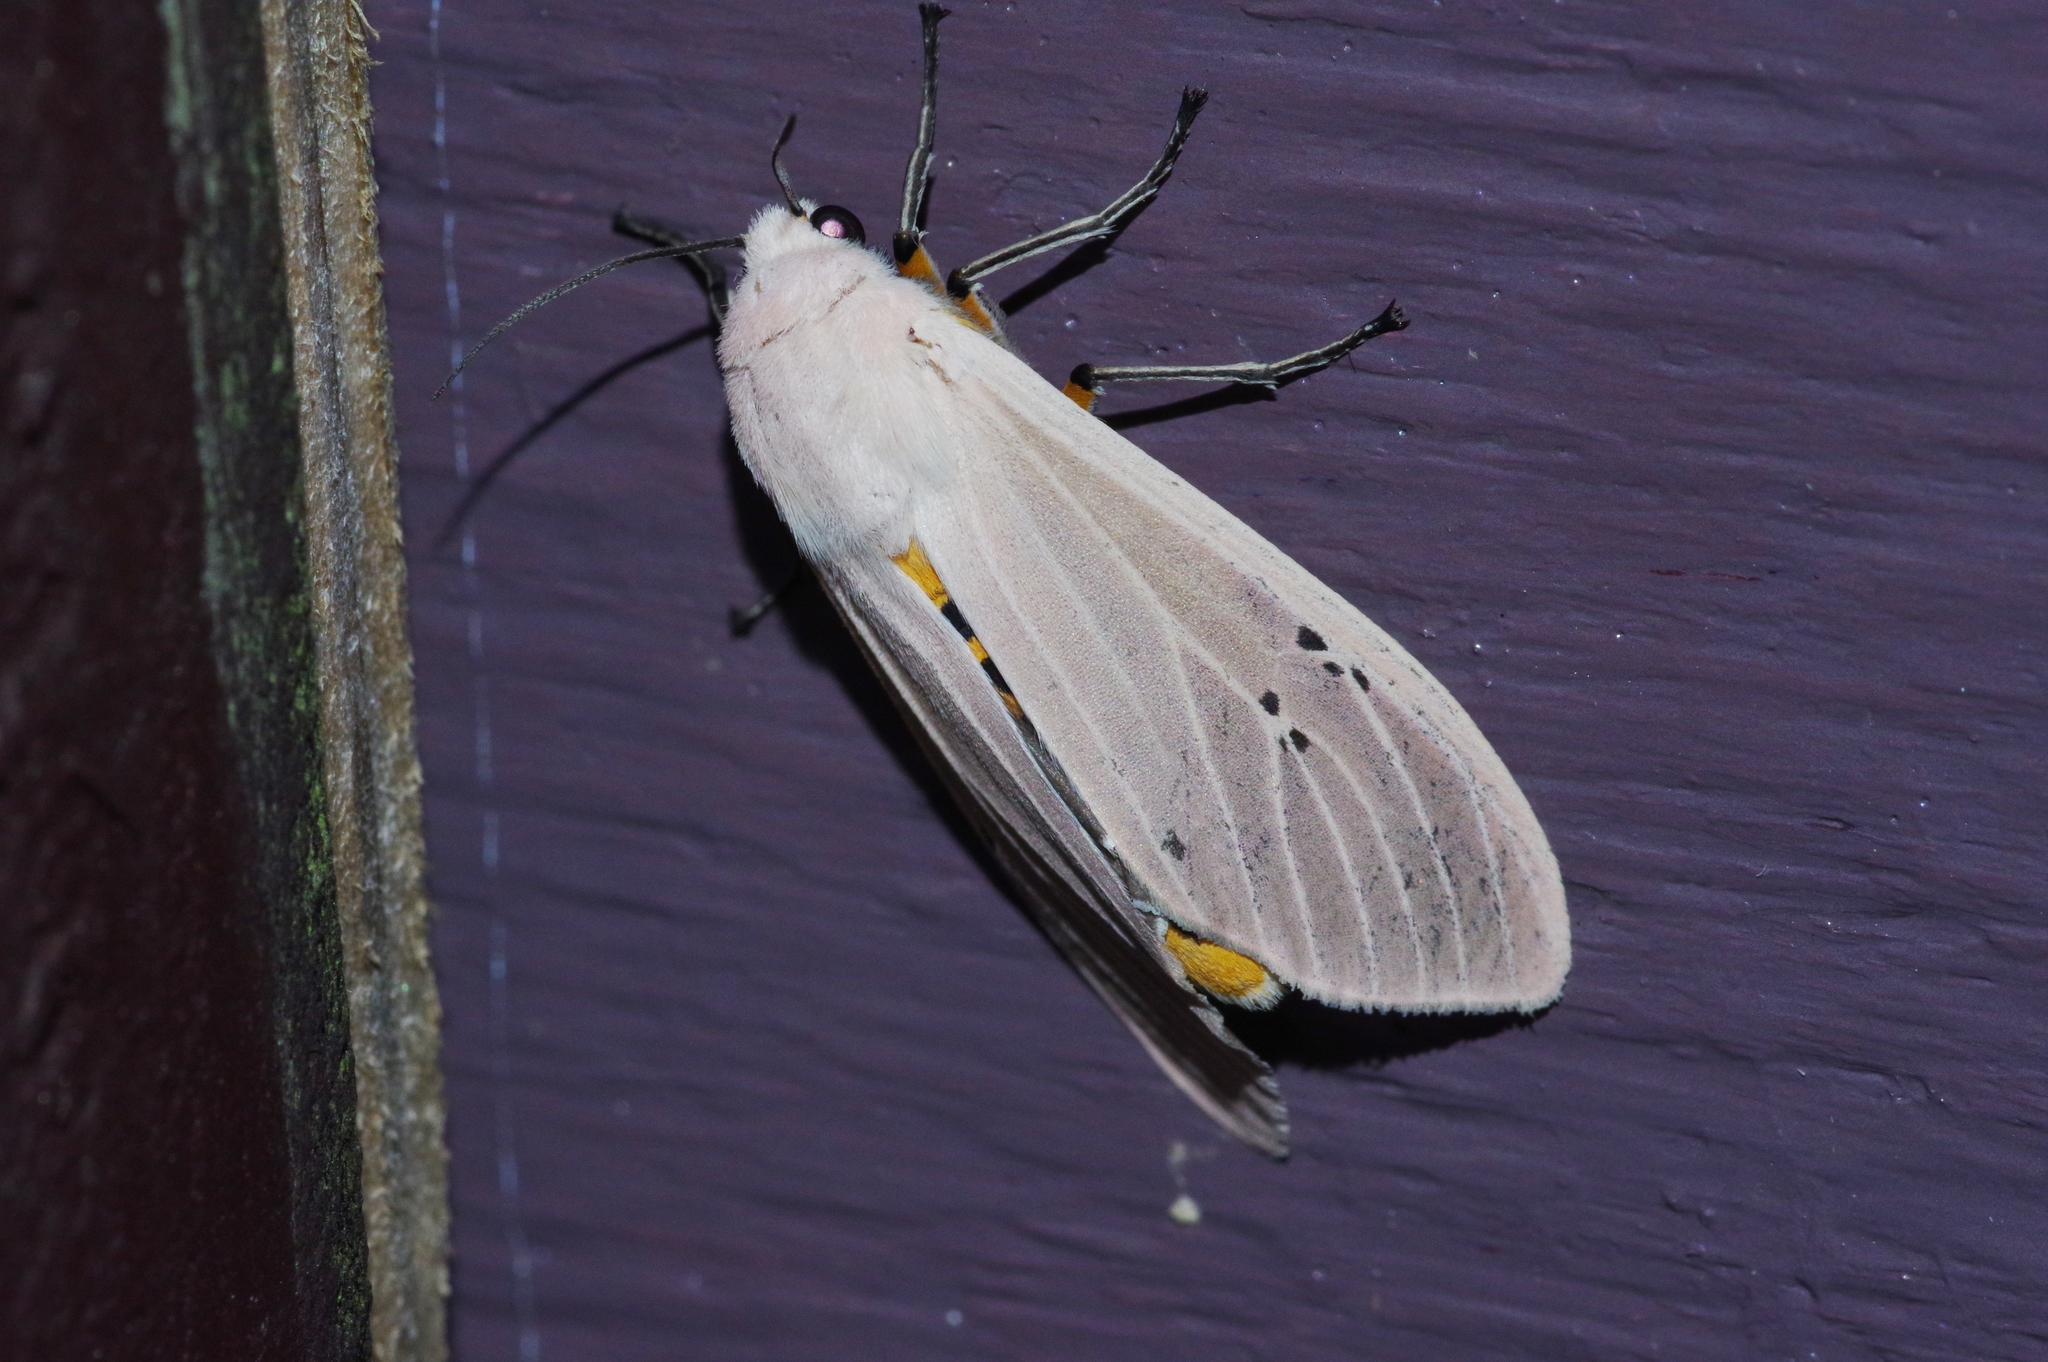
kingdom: Animalia
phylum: Arthropoda
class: Insecta
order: Lepidoptera
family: Erebidae
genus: Creatonotos
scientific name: Creatonotos transiens
